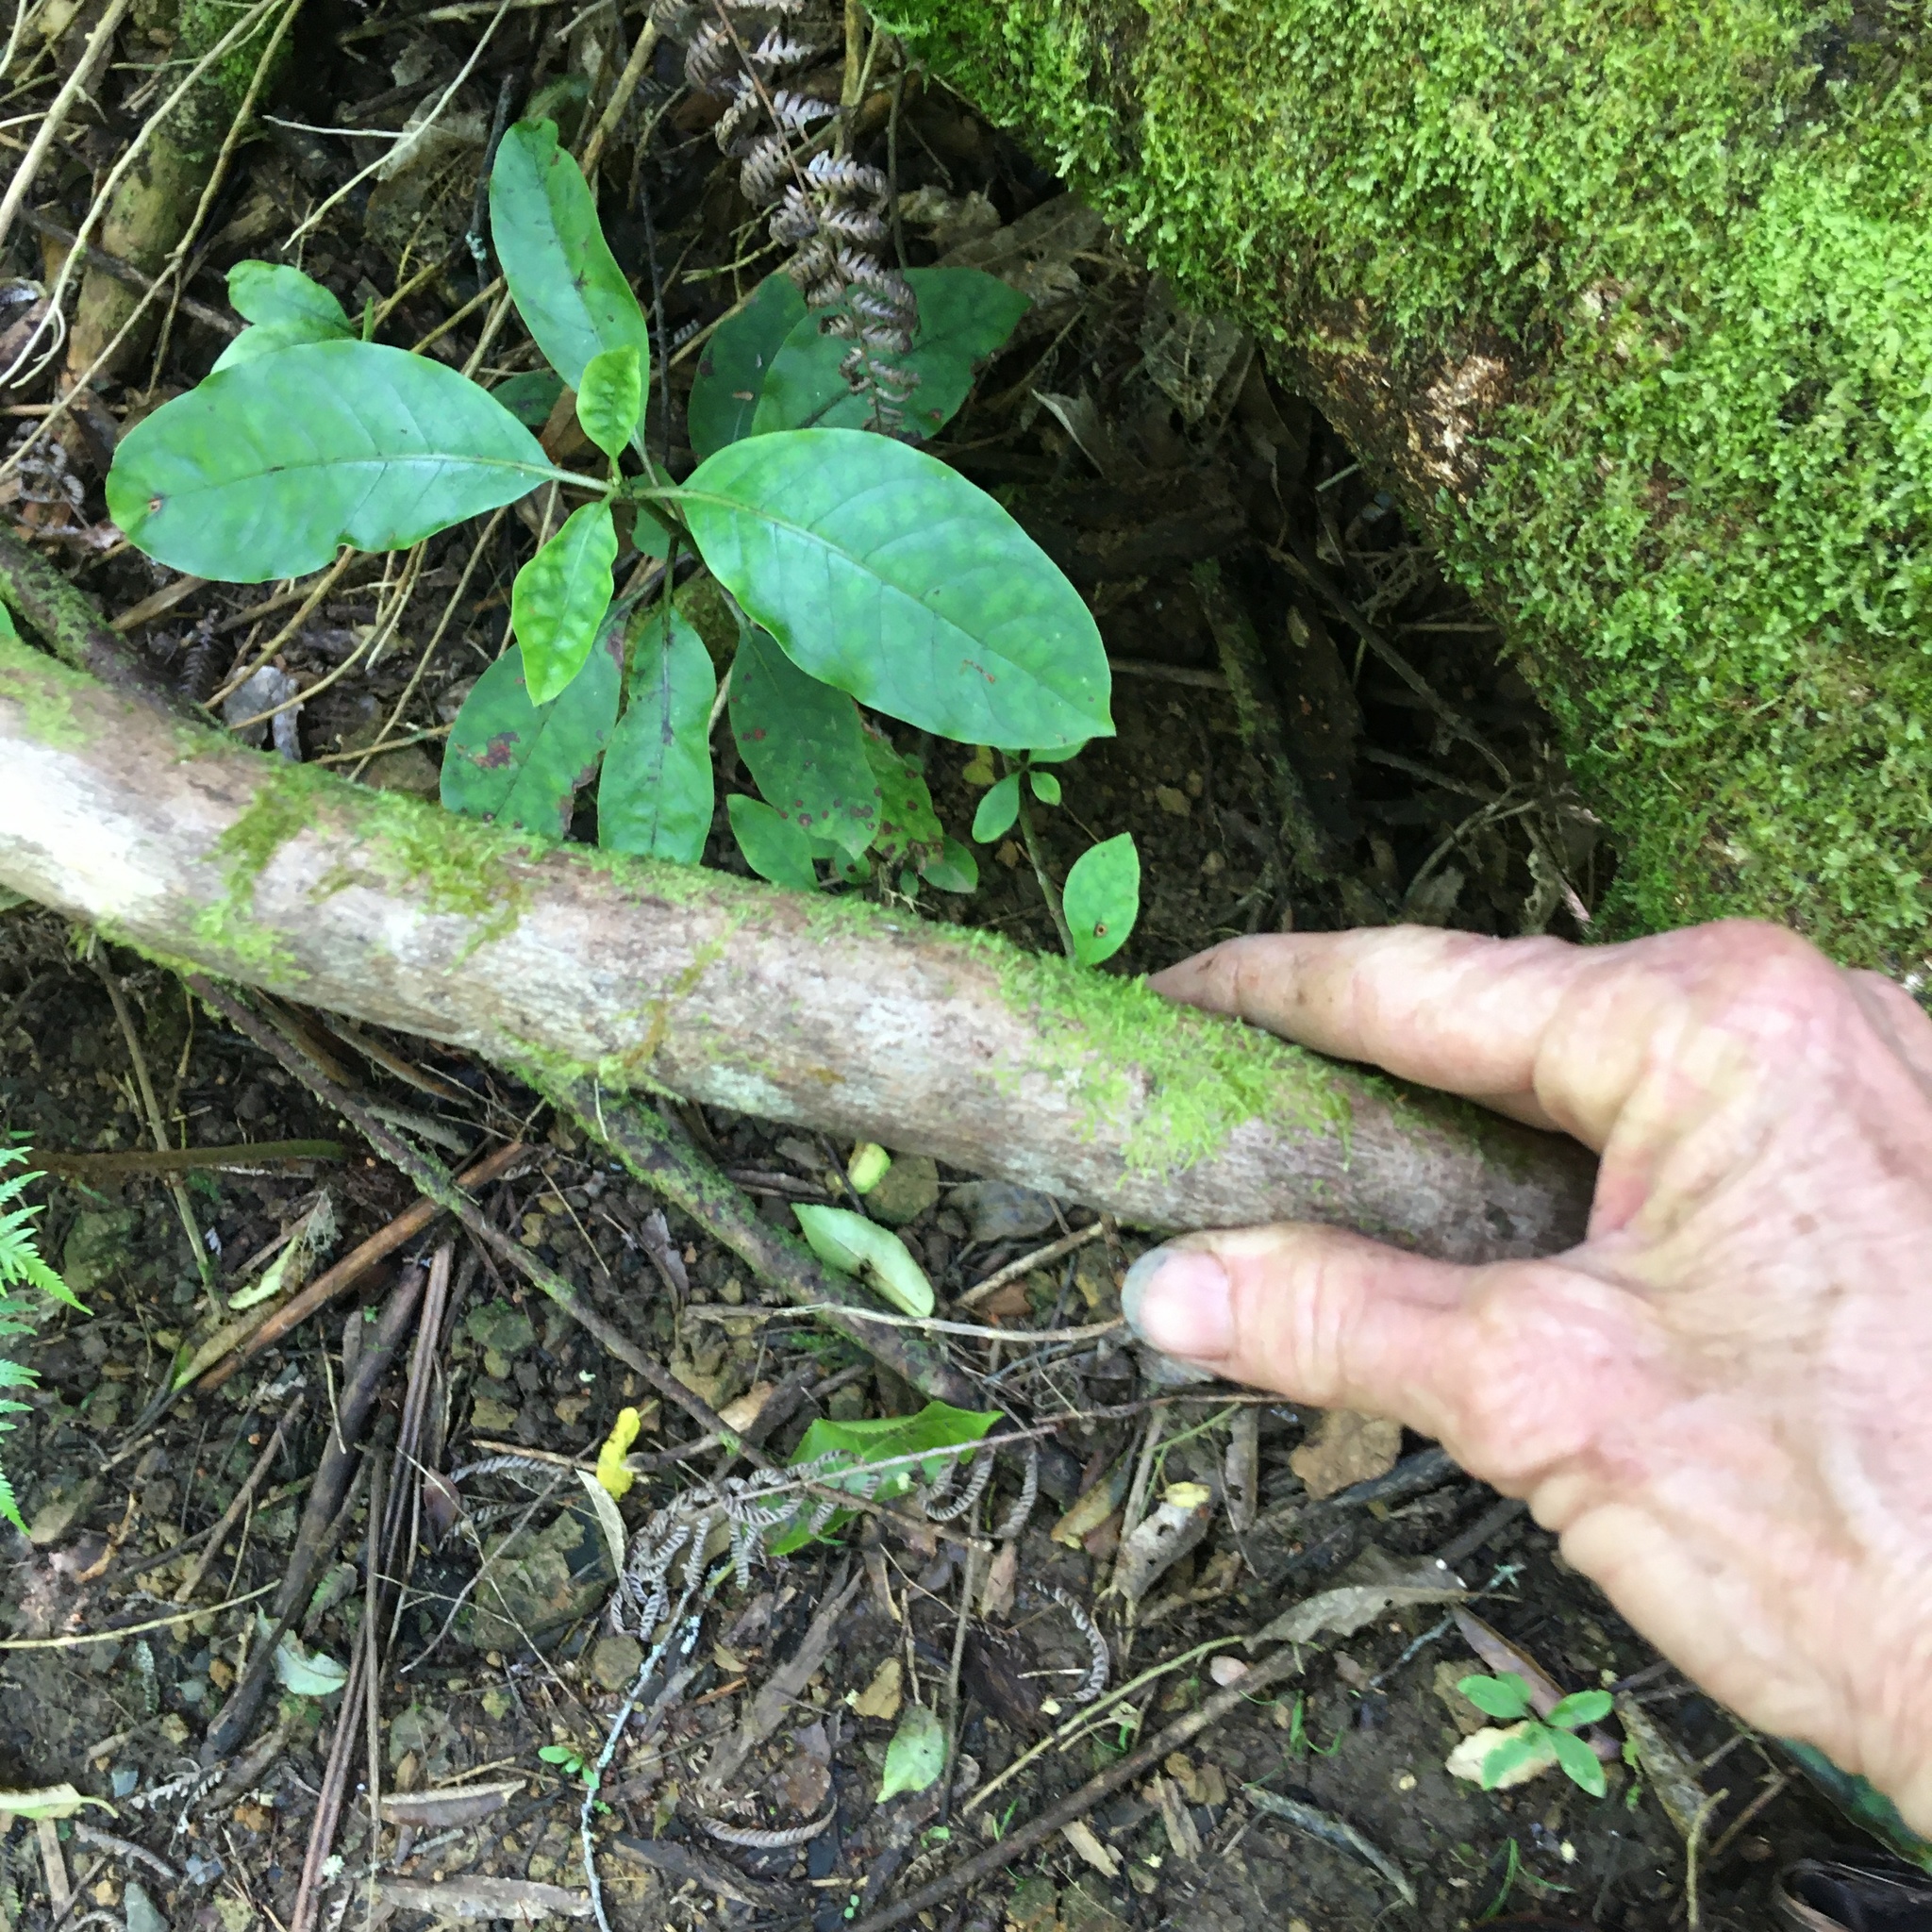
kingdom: Plantae
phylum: Tracheophyta
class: Magnoliopsida
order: Gentianales
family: Rubiaceae
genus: Coprosma
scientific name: Coprosma autumnalis
